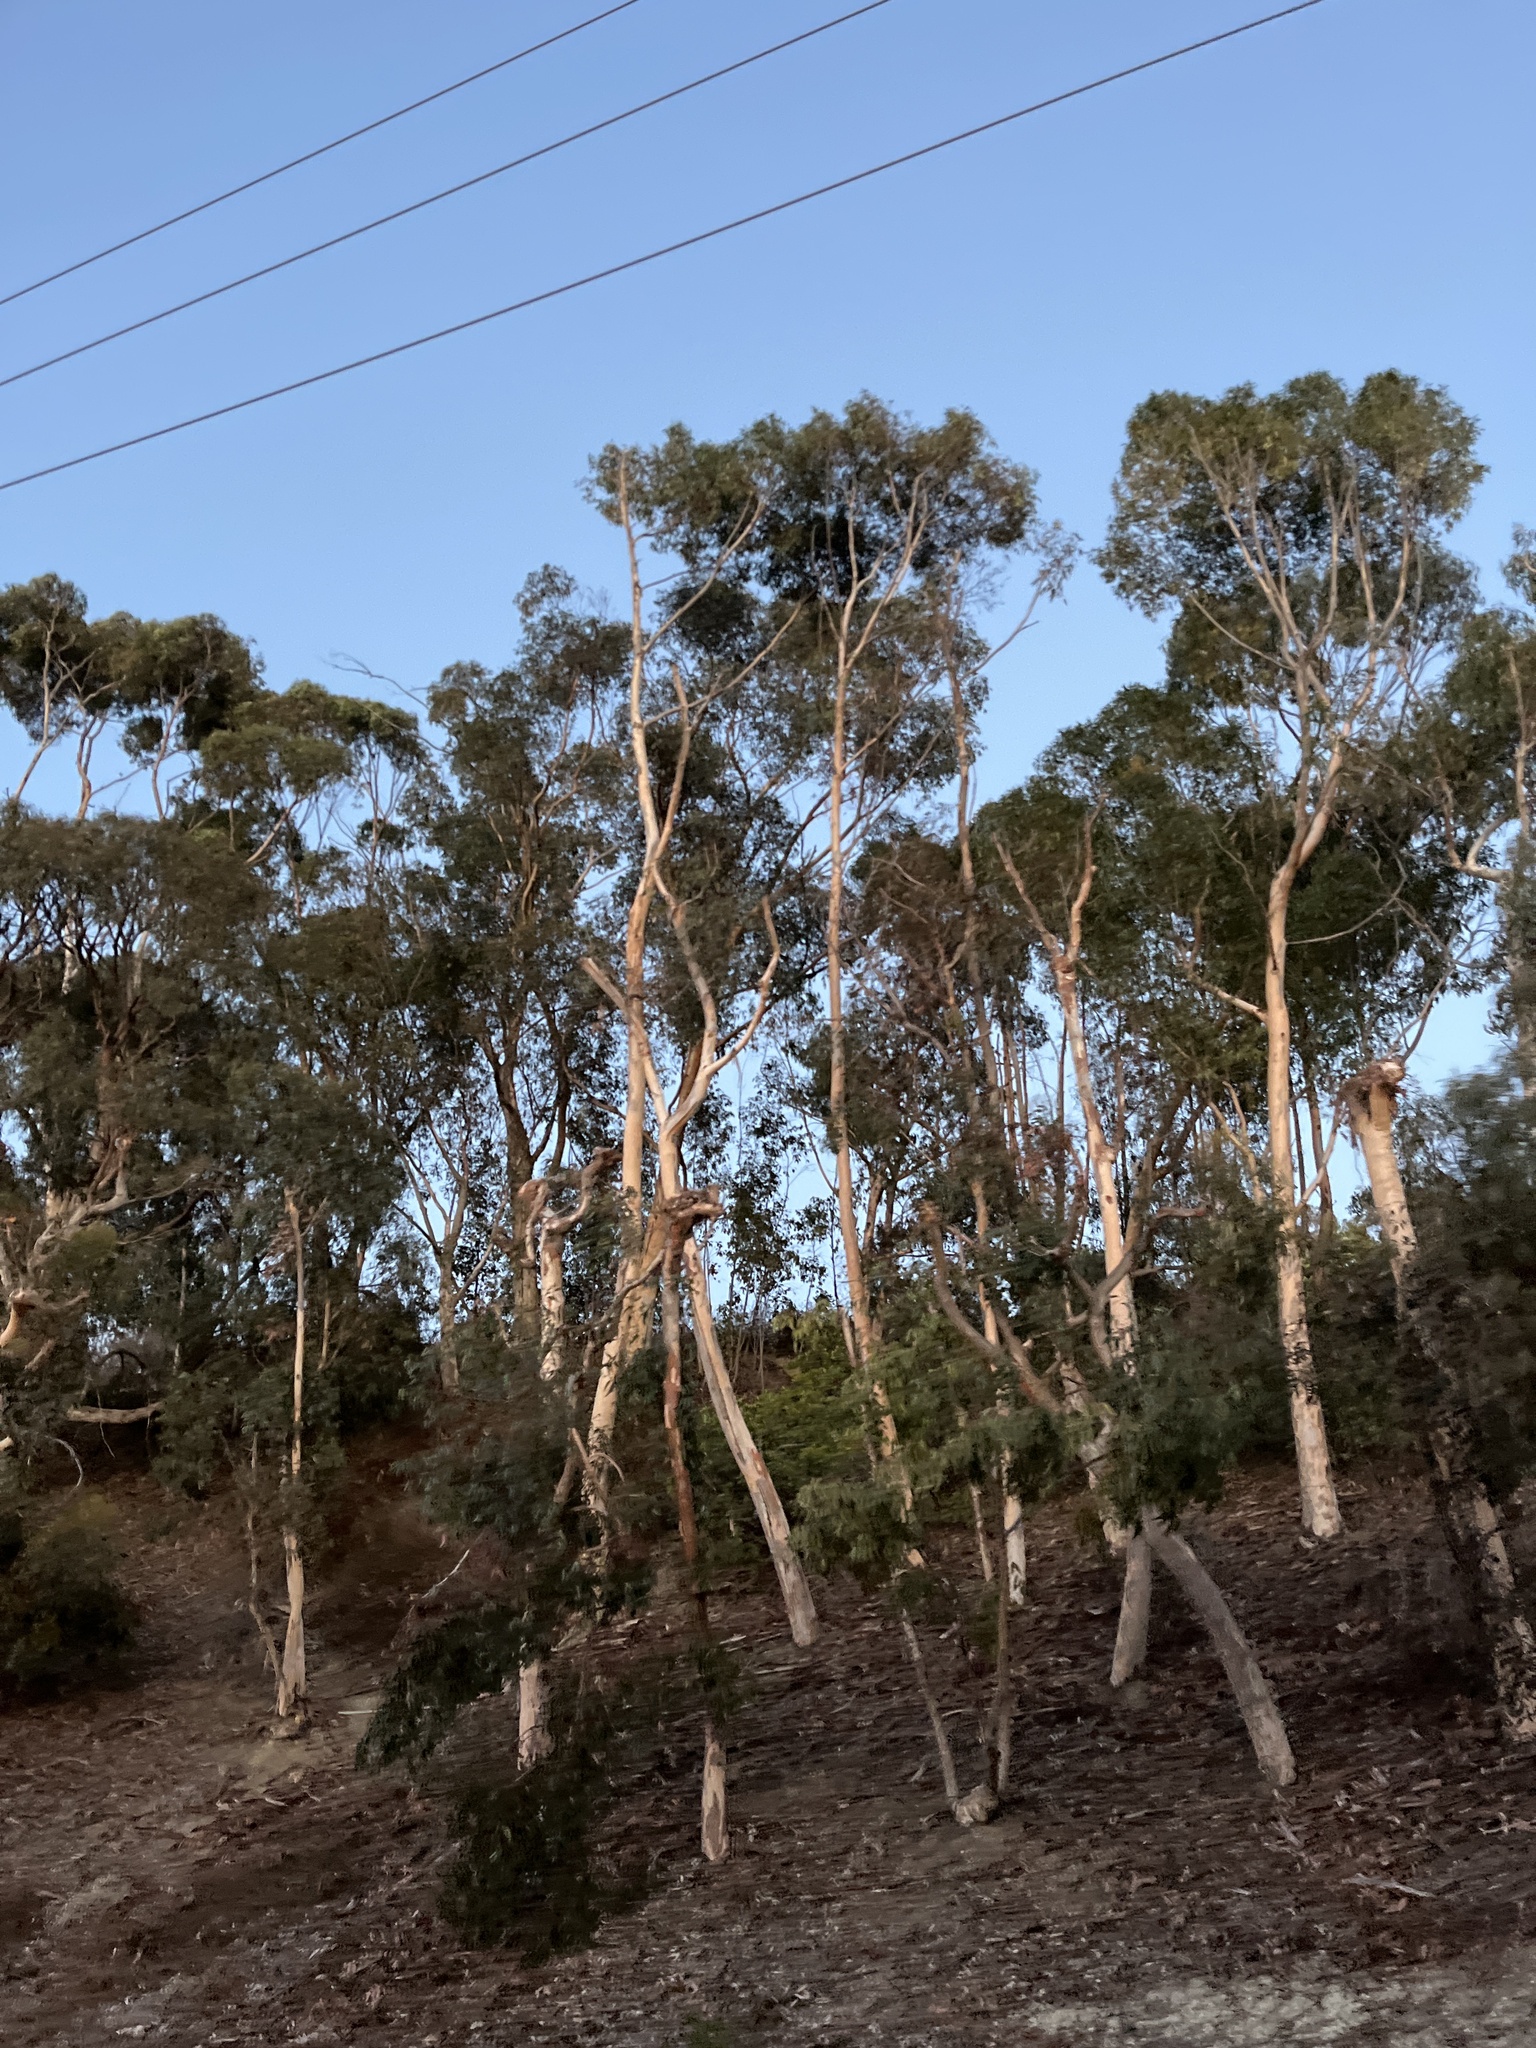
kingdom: Plantae
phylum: Tracheophyta
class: Magnoliopsida
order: Myrtales
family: Myrtaceae
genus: Eucalyptus
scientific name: Eucalyptus
